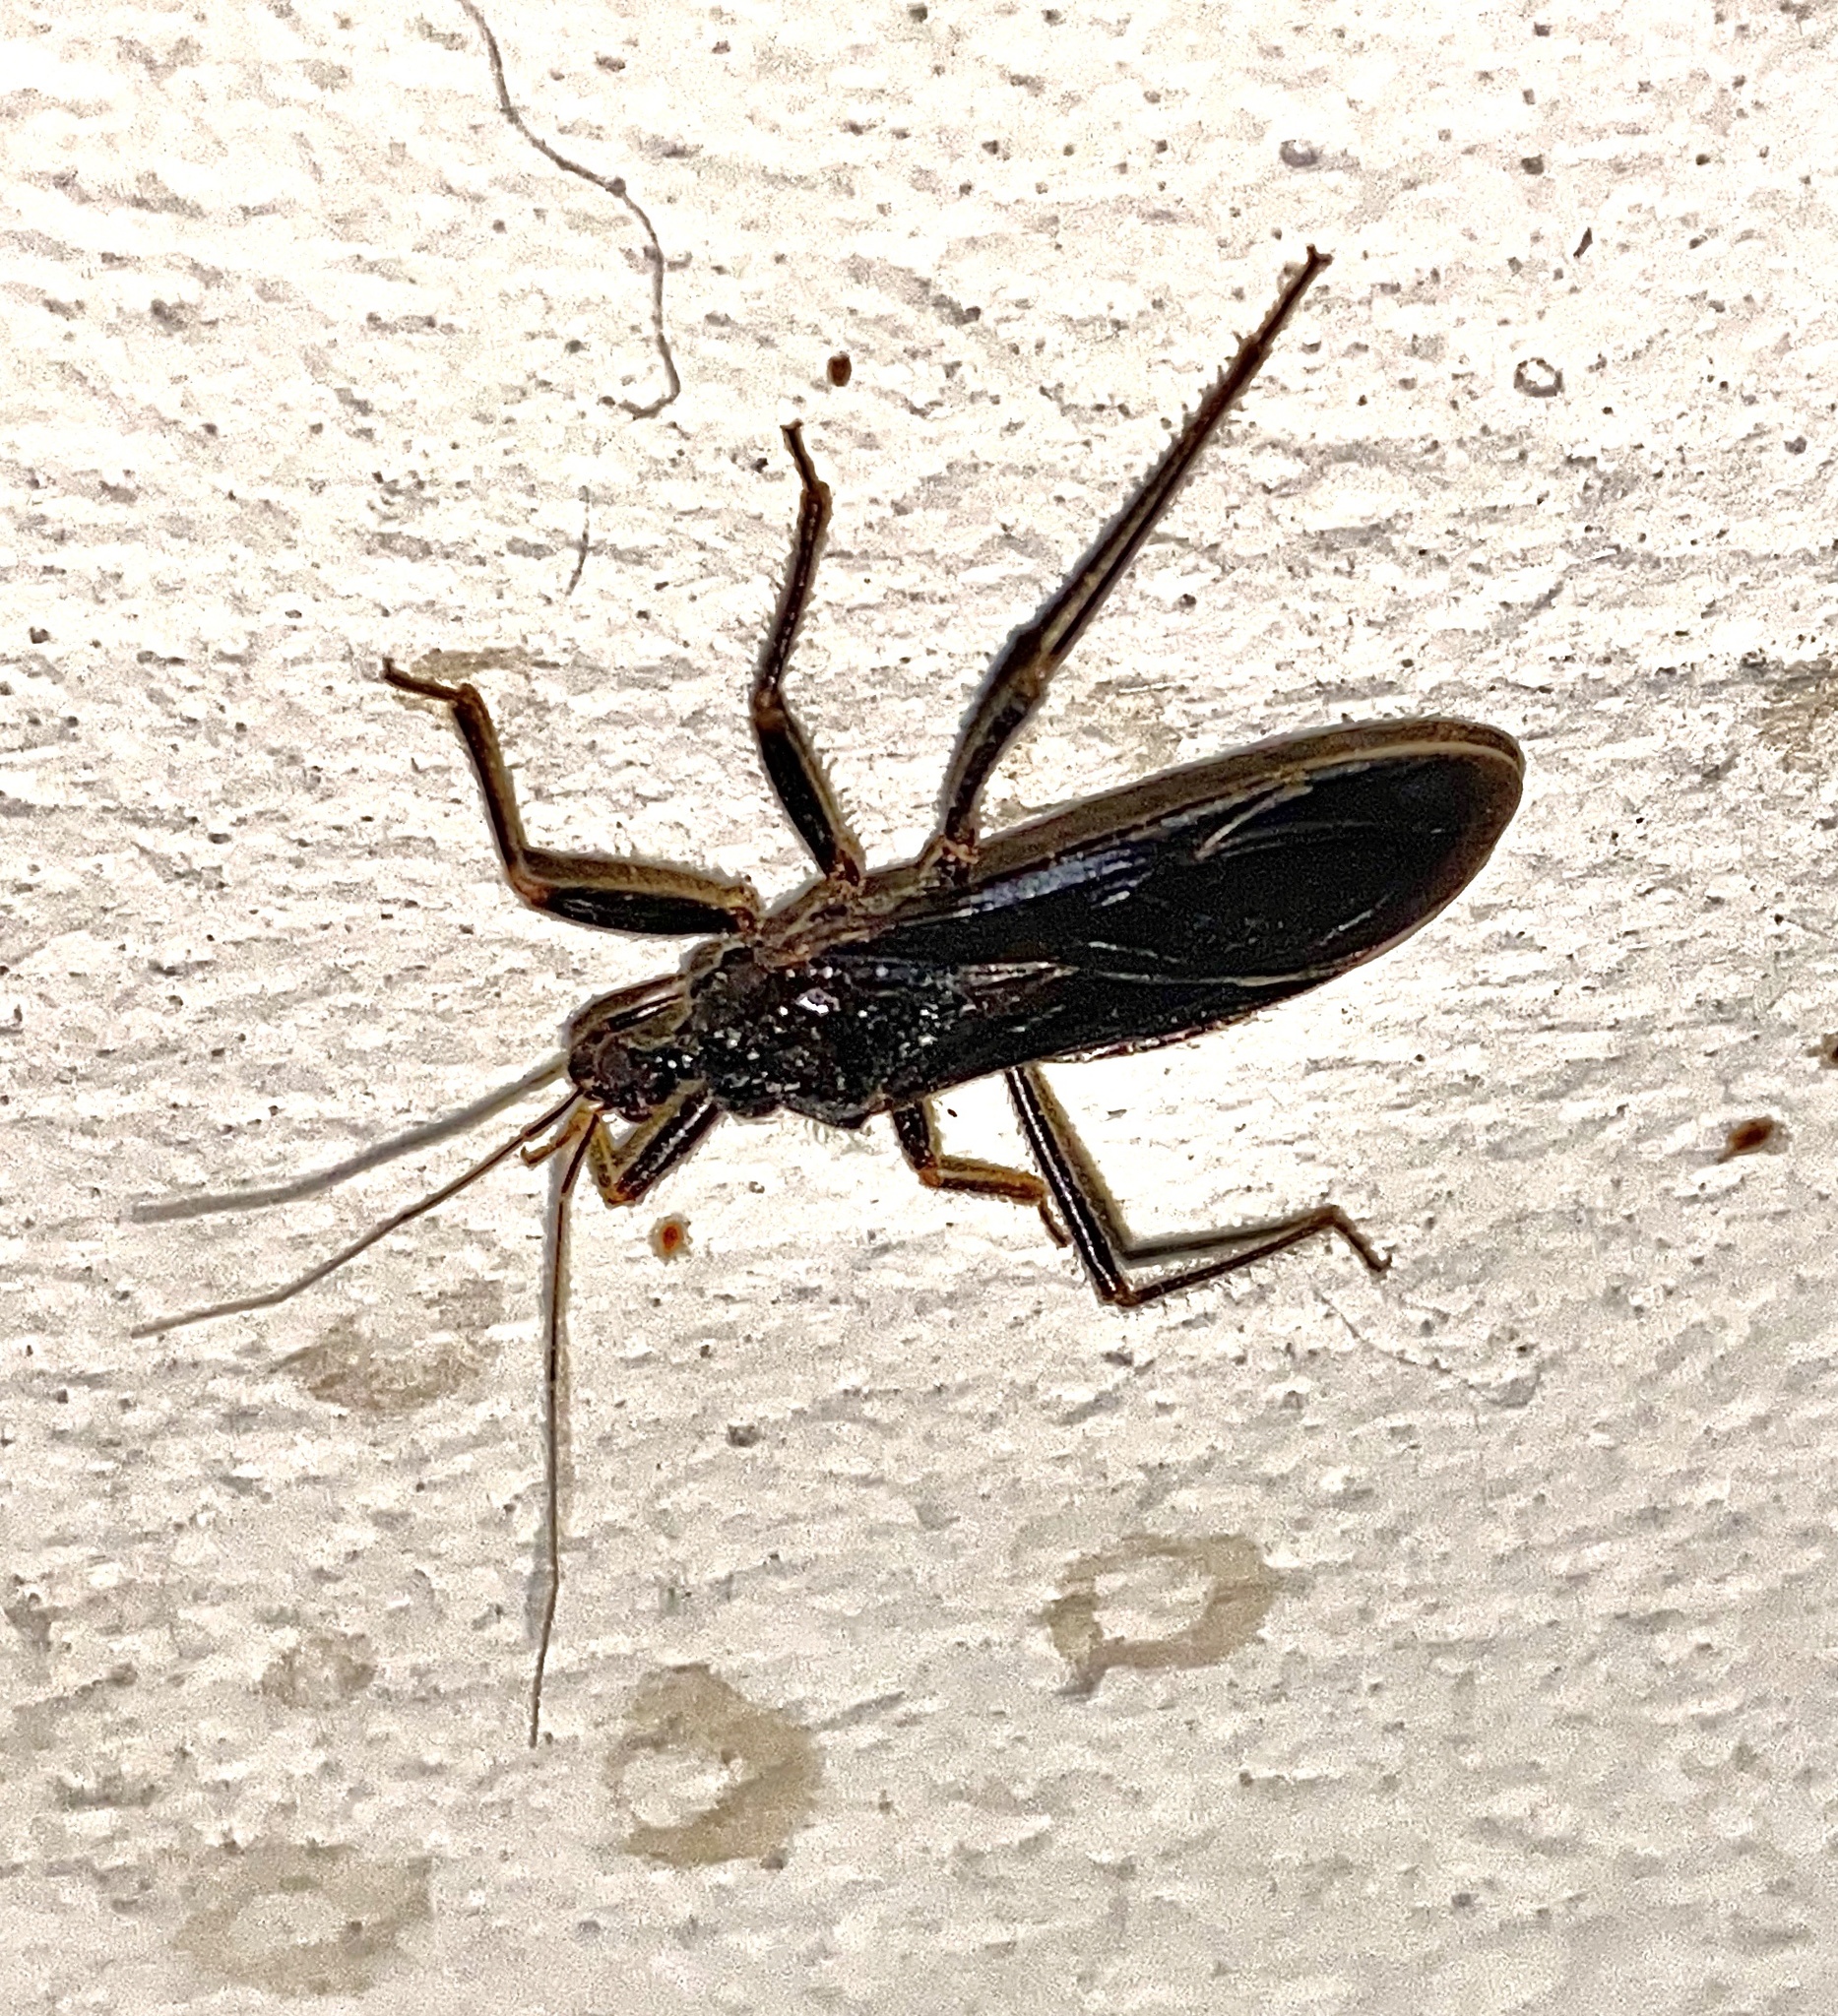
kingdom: Animalia
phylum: Arthropoda
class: Insecta
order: Hemiptera
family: Reduviidae
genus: Reduvius
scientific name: Reduvius personatus
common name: Masked hunter
